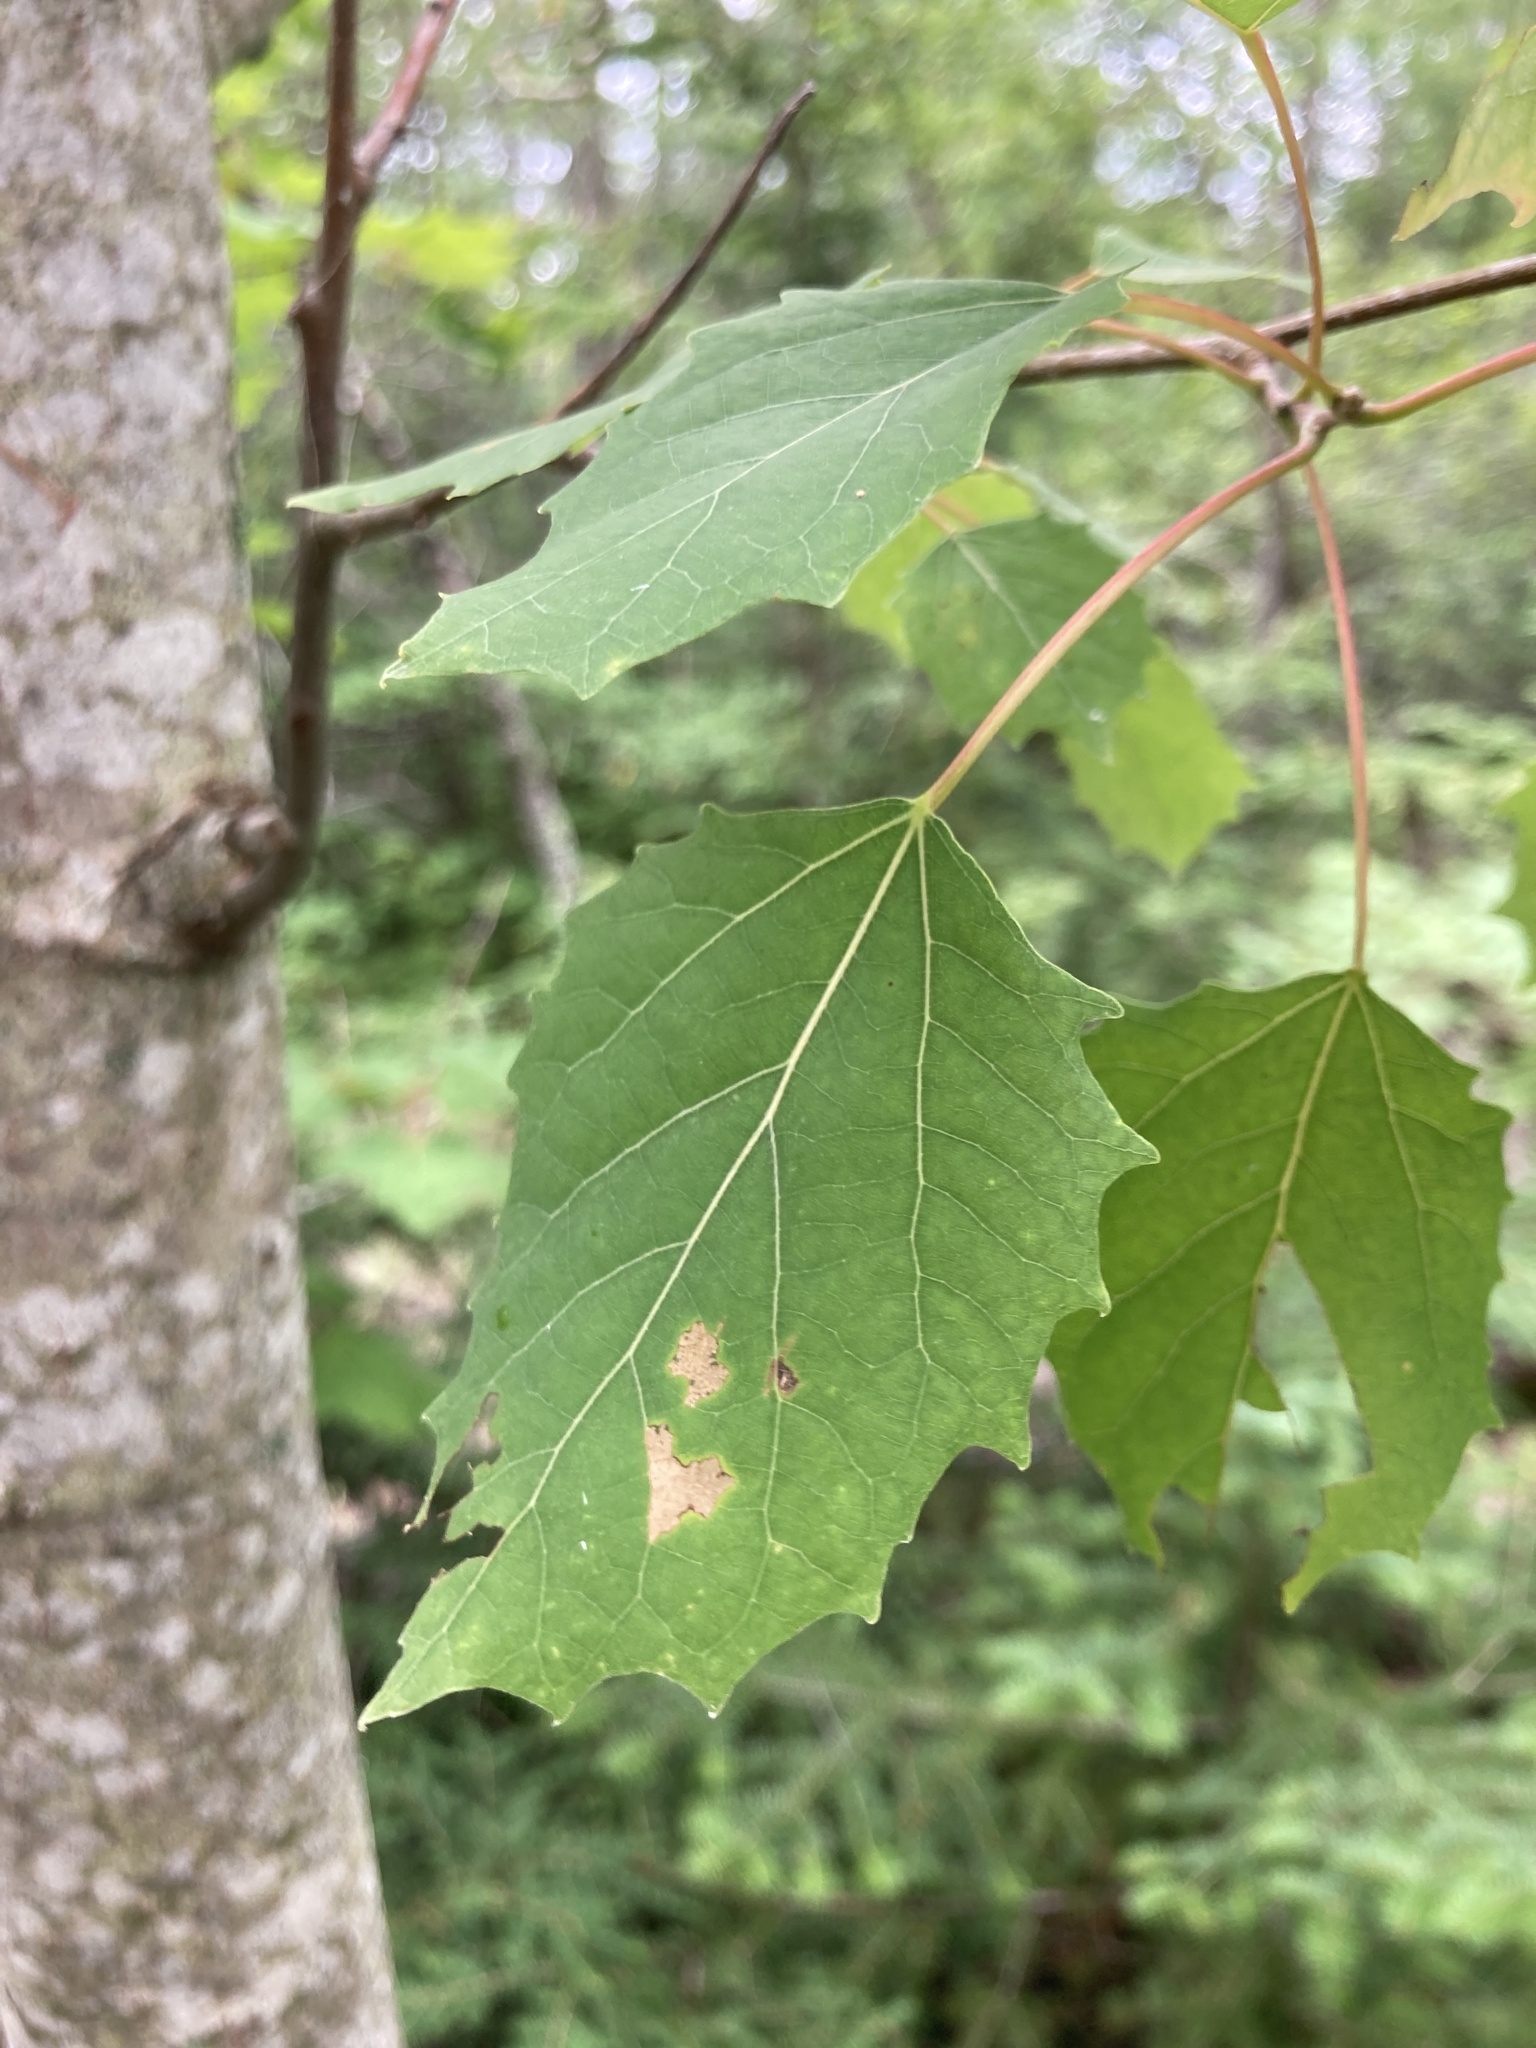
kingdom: Plantae
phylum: Tracheophyta
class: Magnoliopsida
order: Malpighiales
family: Salicaceae
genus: Populus
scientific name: Populus grandidentata
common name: Bigtooth aspen
